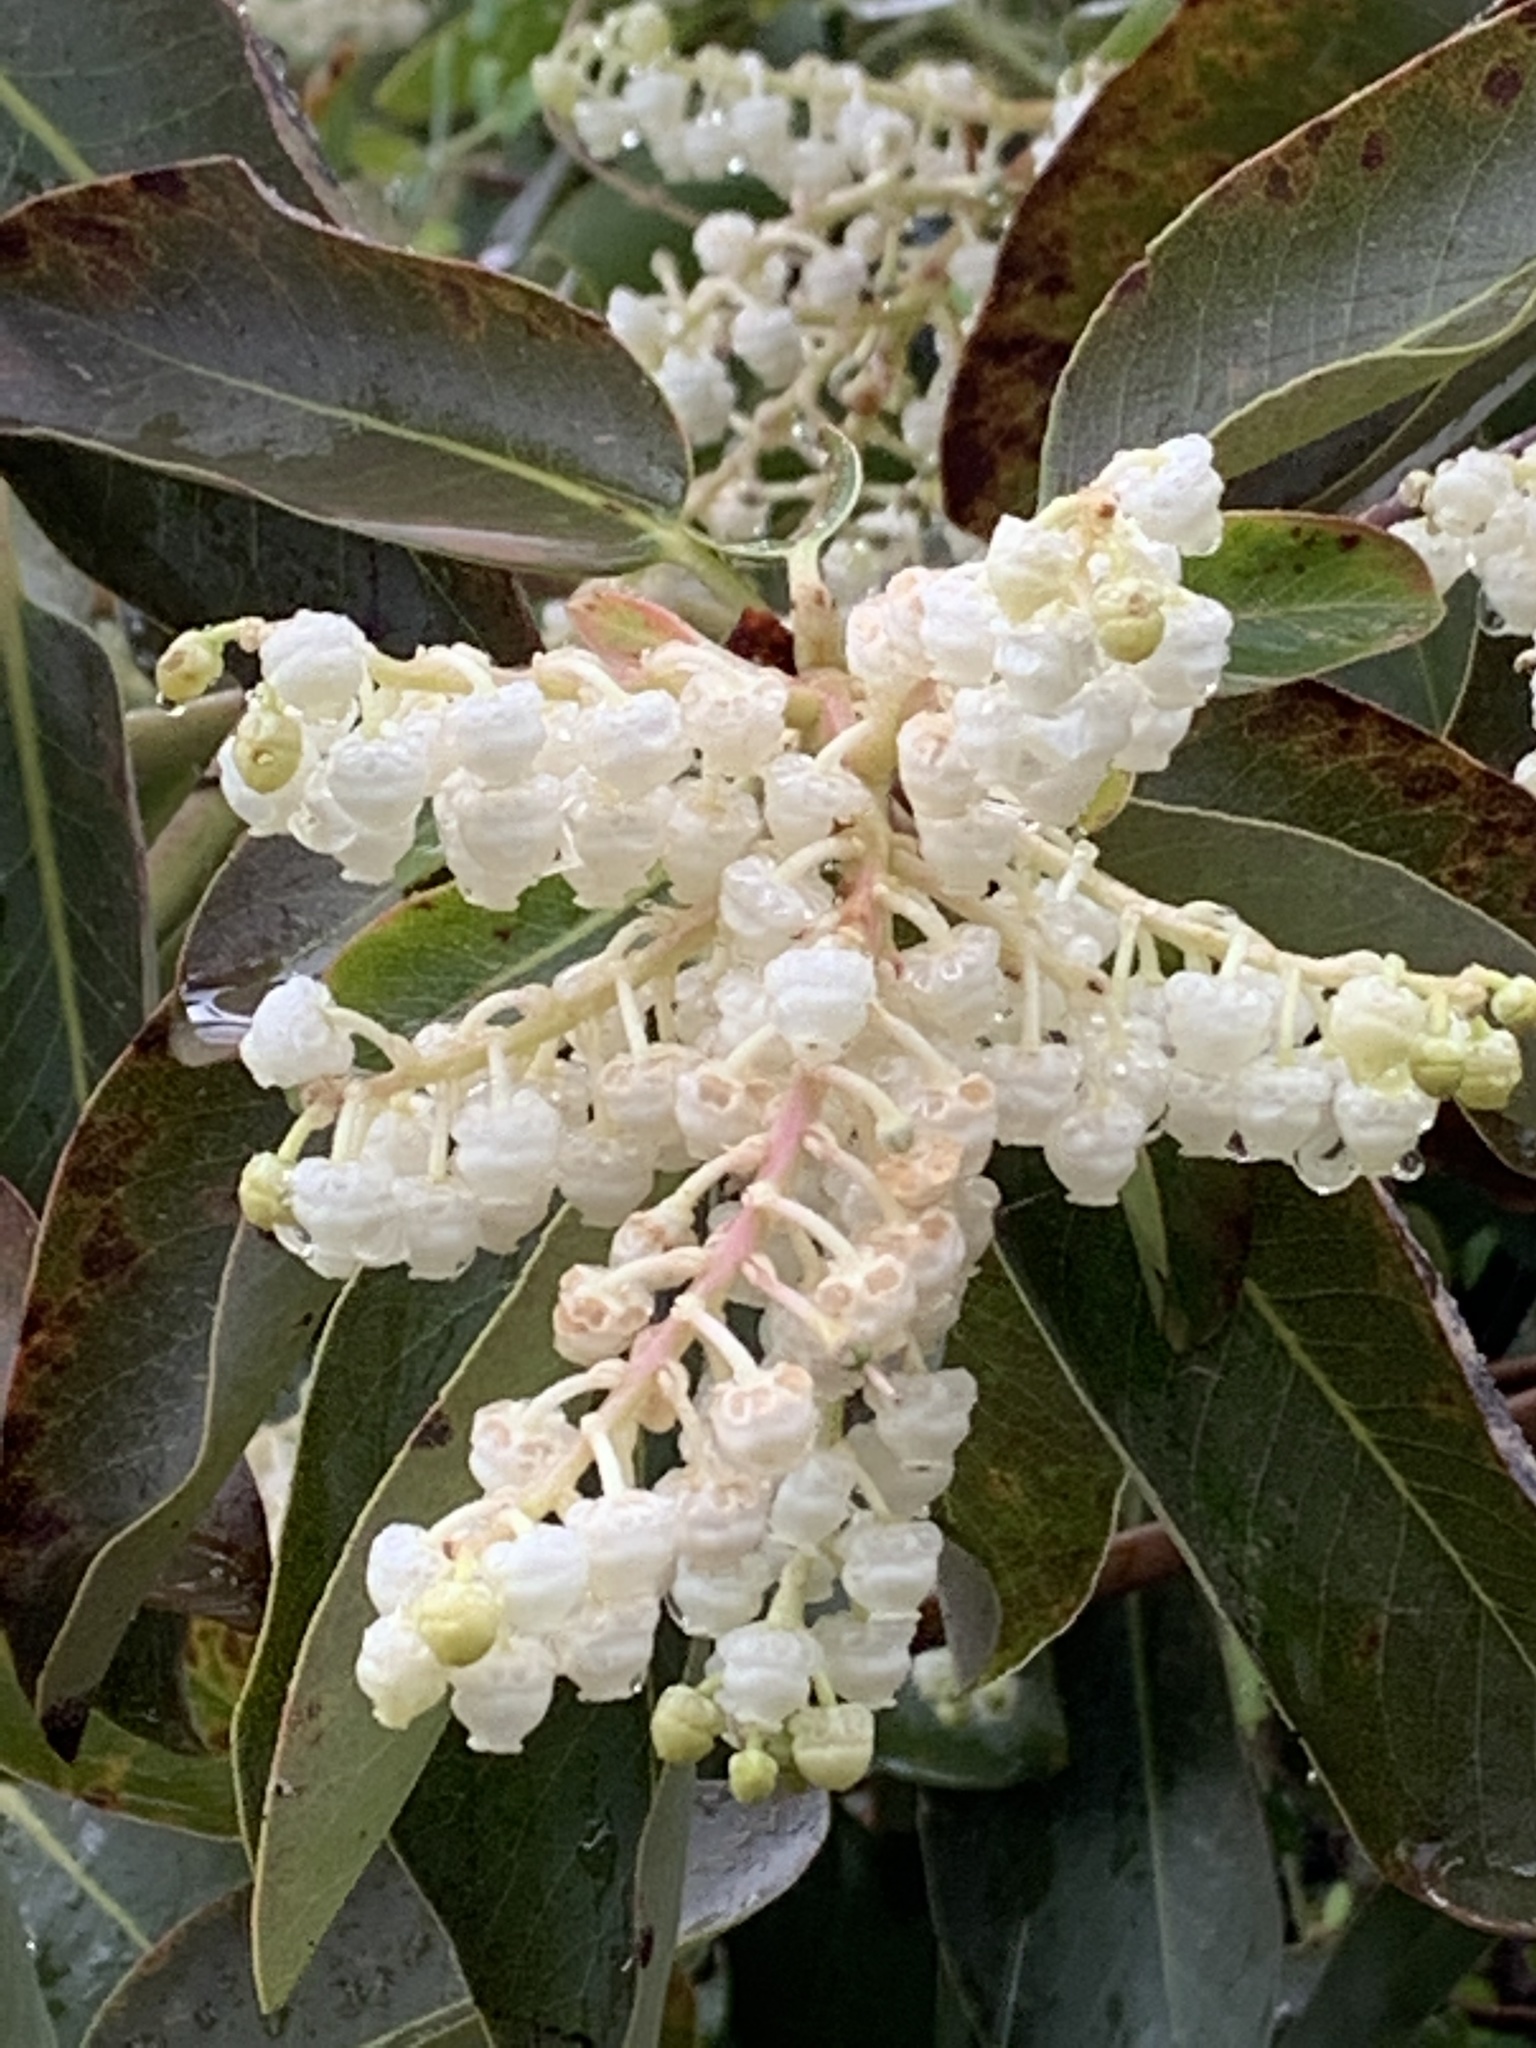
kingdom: Plantae
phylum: Tracheophyta
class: Magnoliopsida
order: Ericales
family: Ericaceae
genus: Arbutus
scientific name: Arbutus menziesii
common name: Pacific madrone
